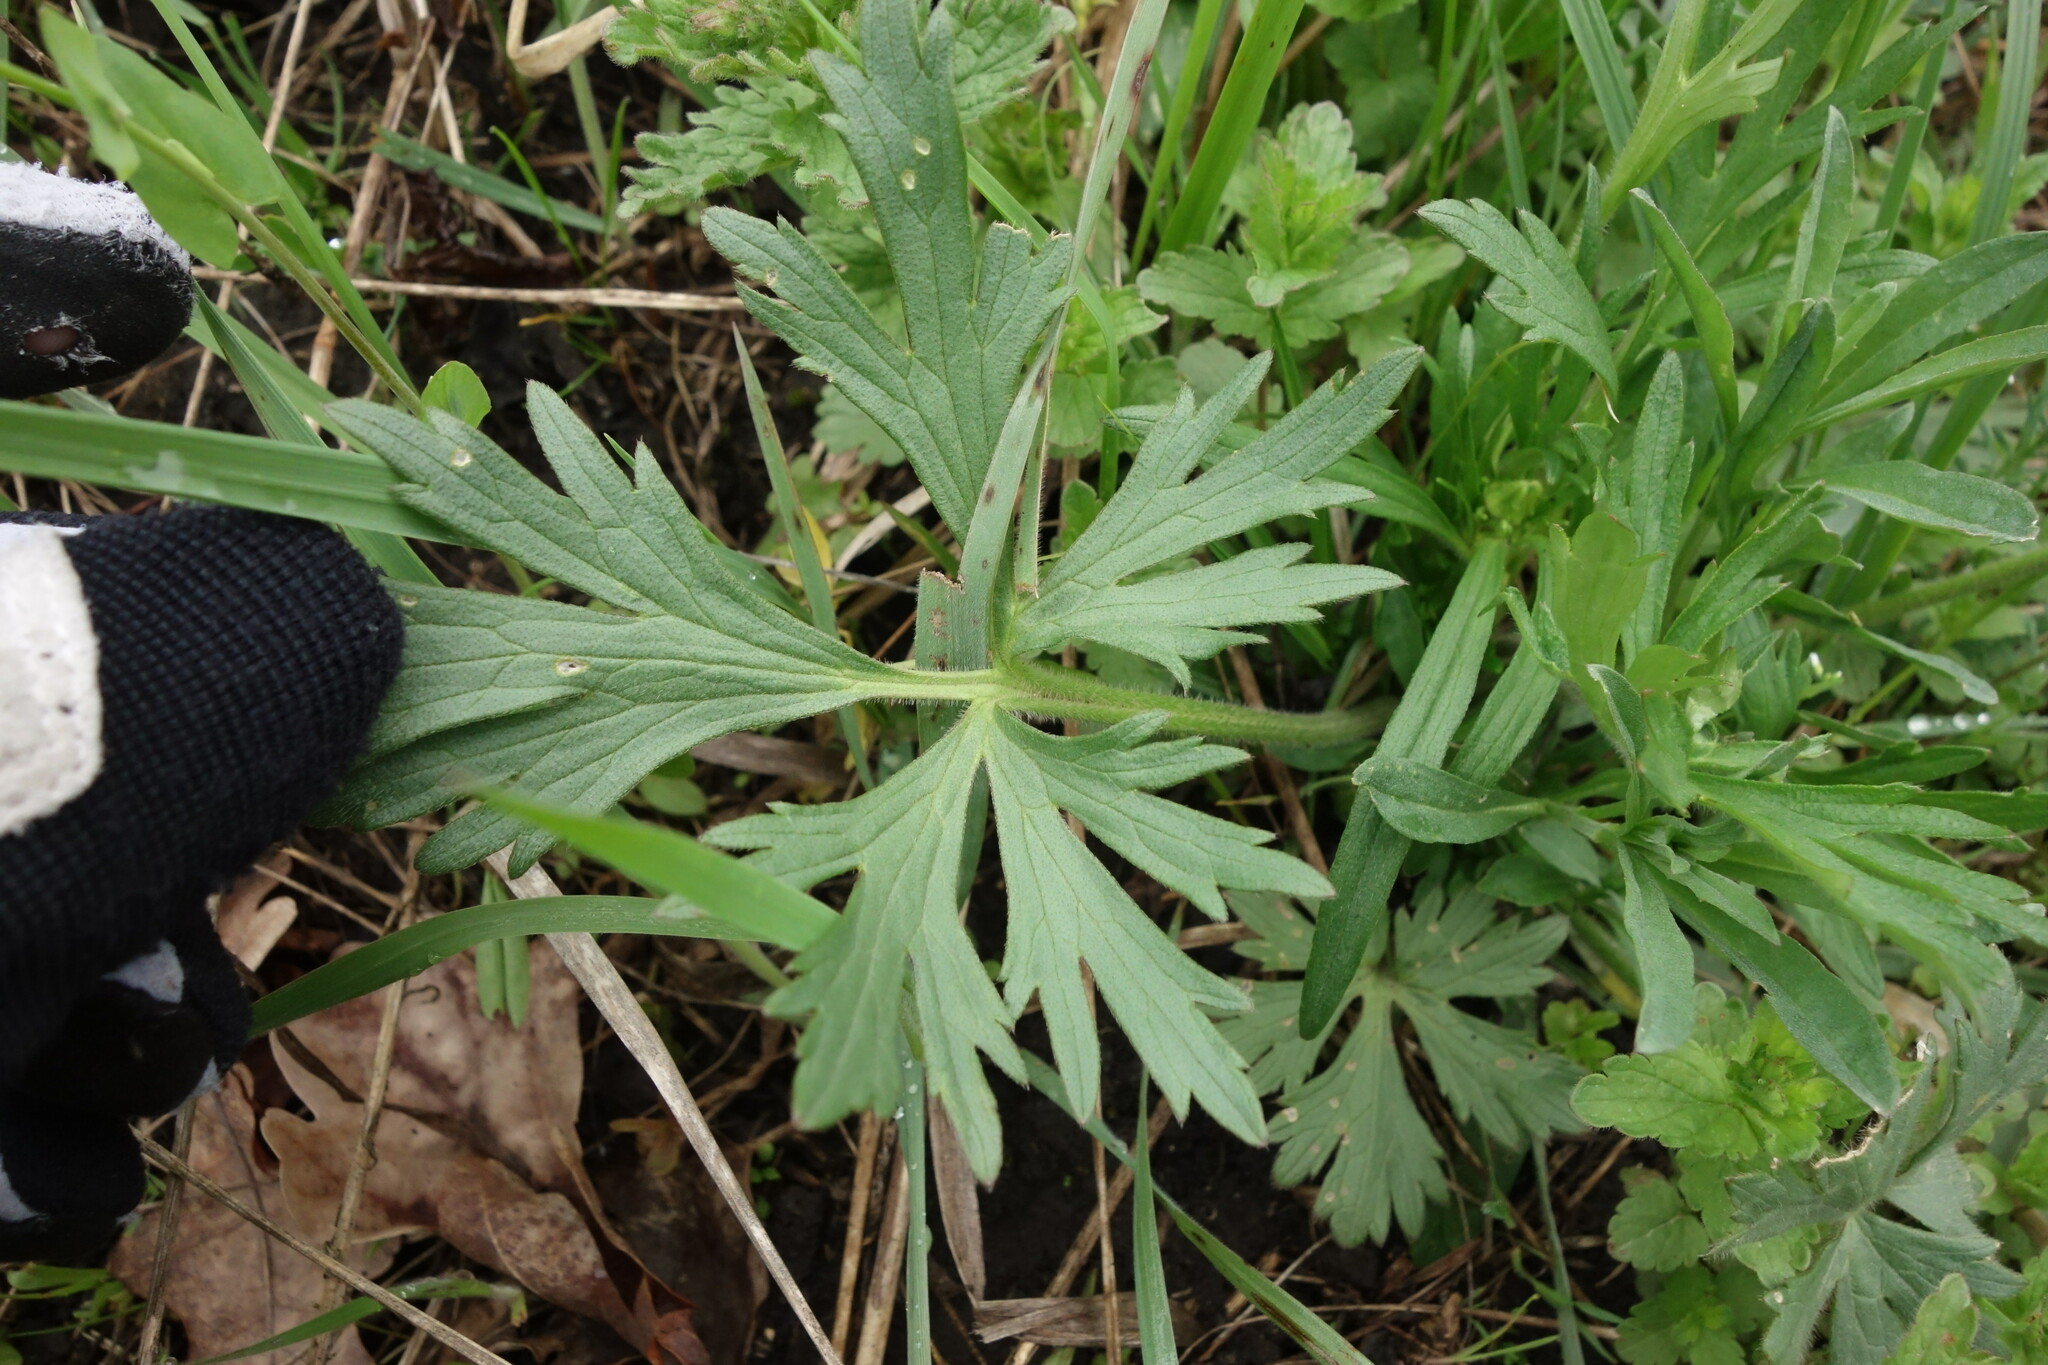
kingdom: Plantae
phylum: Tracheophyta
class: Magnoliopsida
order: Ranunculales
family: Ranunculaceae
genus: Ranunculus
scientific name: Ranunculus polyanthemos
